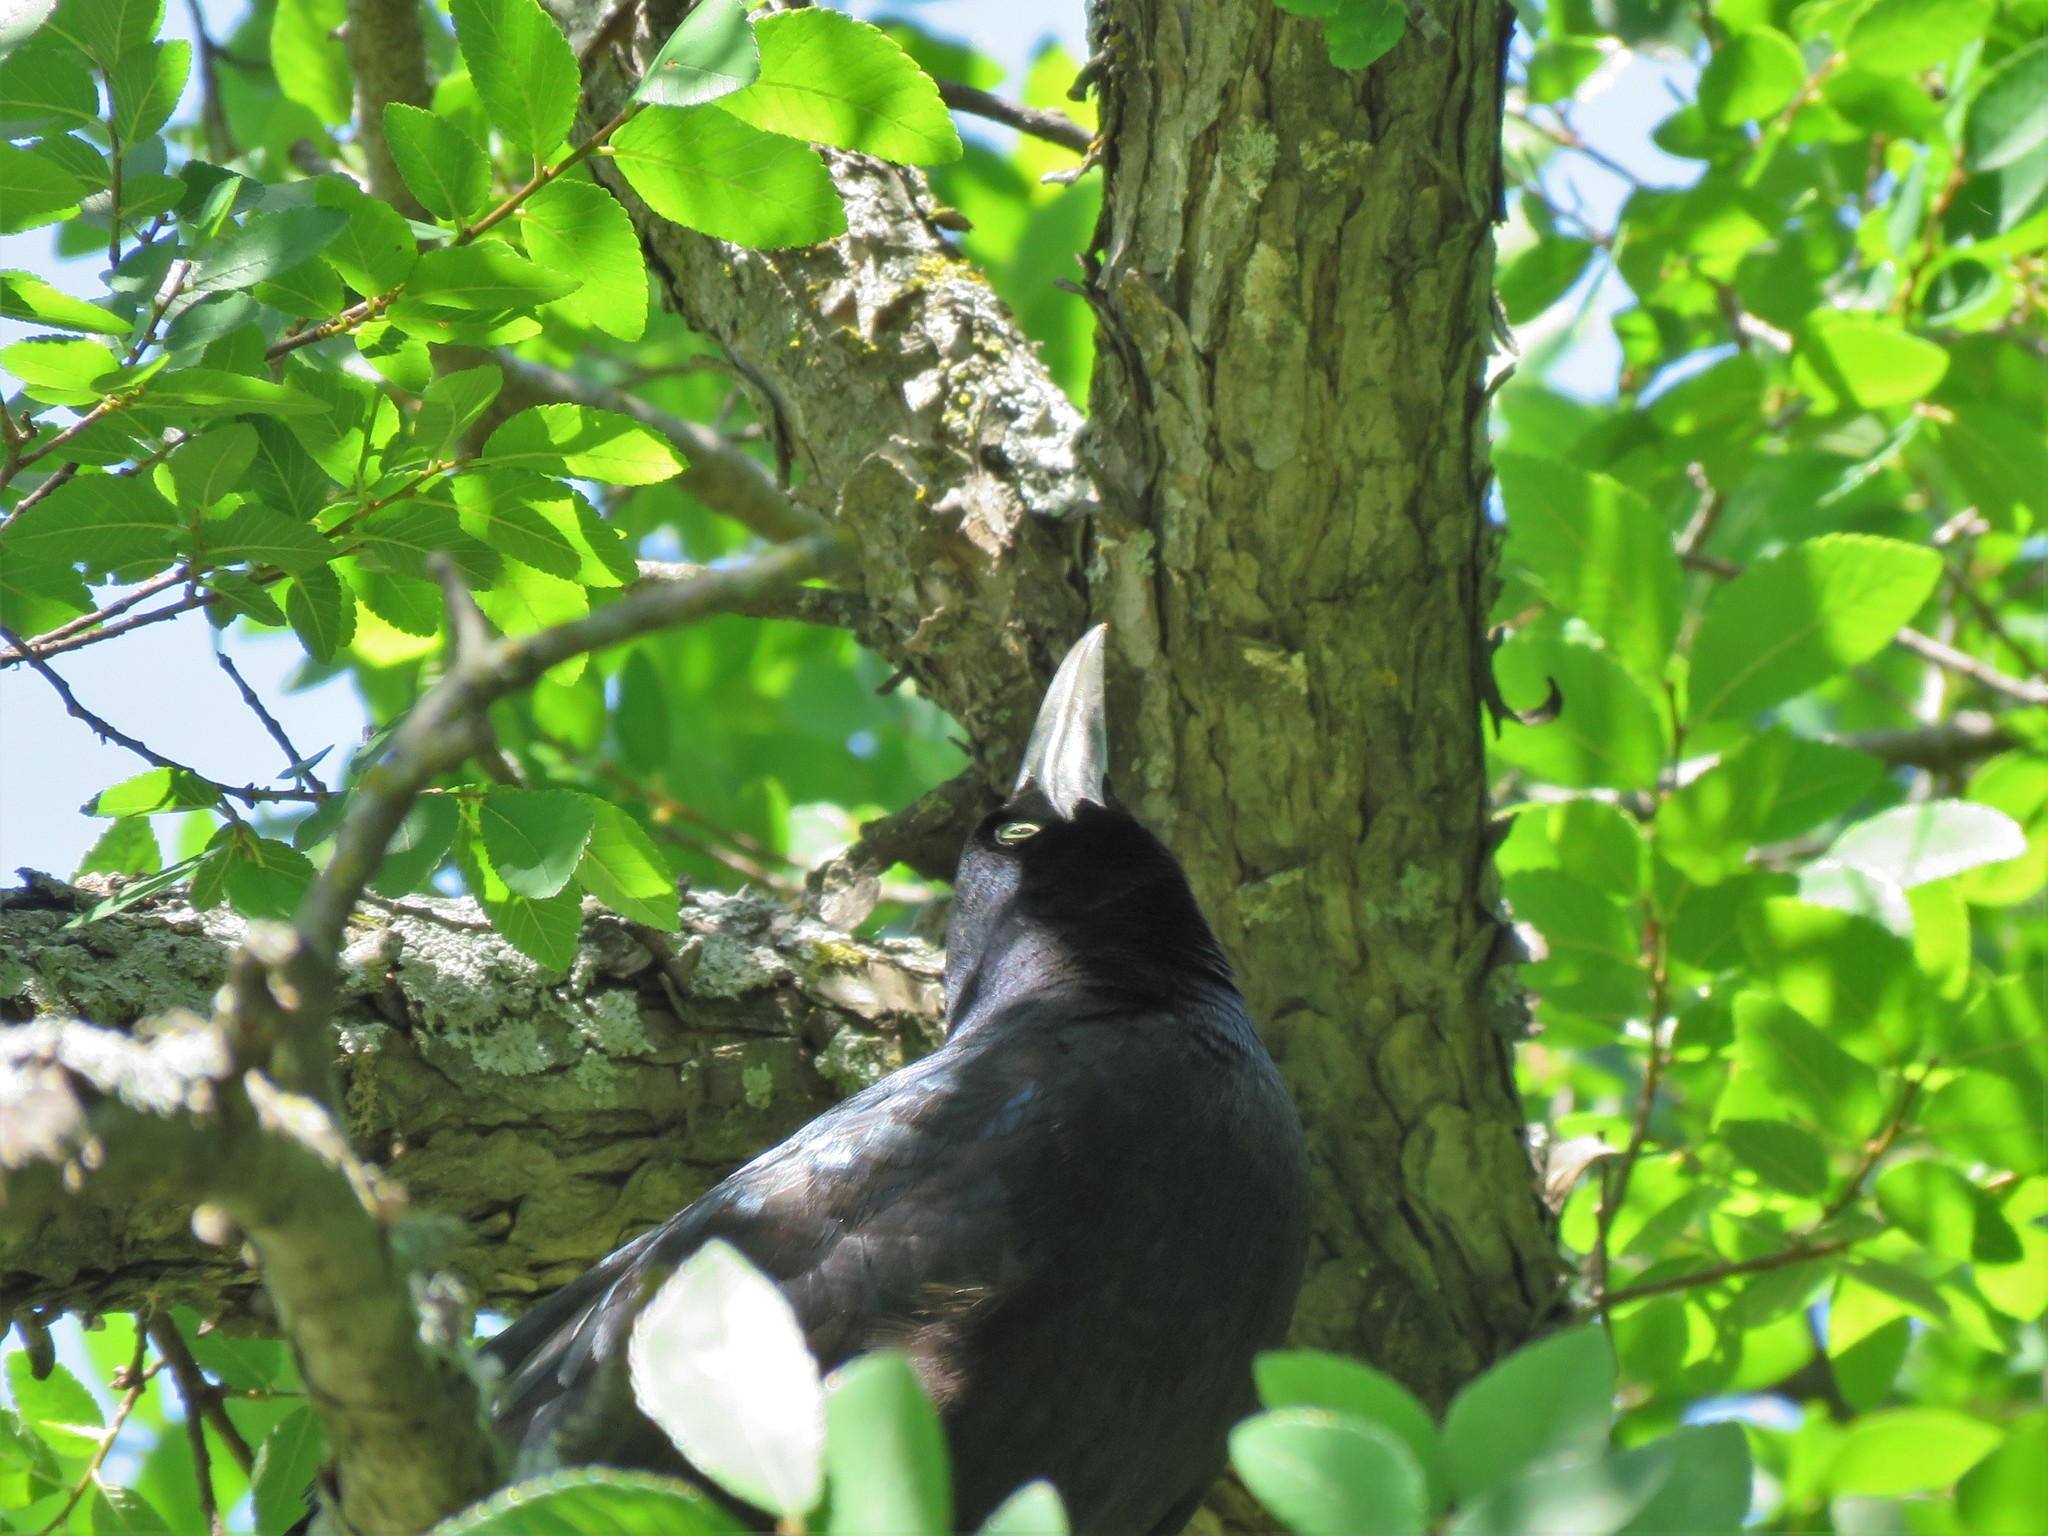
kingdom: Animalia
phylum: Chordata
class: Aves
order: Passeriformes
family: Icteridae
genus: Quiscalus
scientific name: Quiscalus mexicanus
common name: Great-tailed grackle
